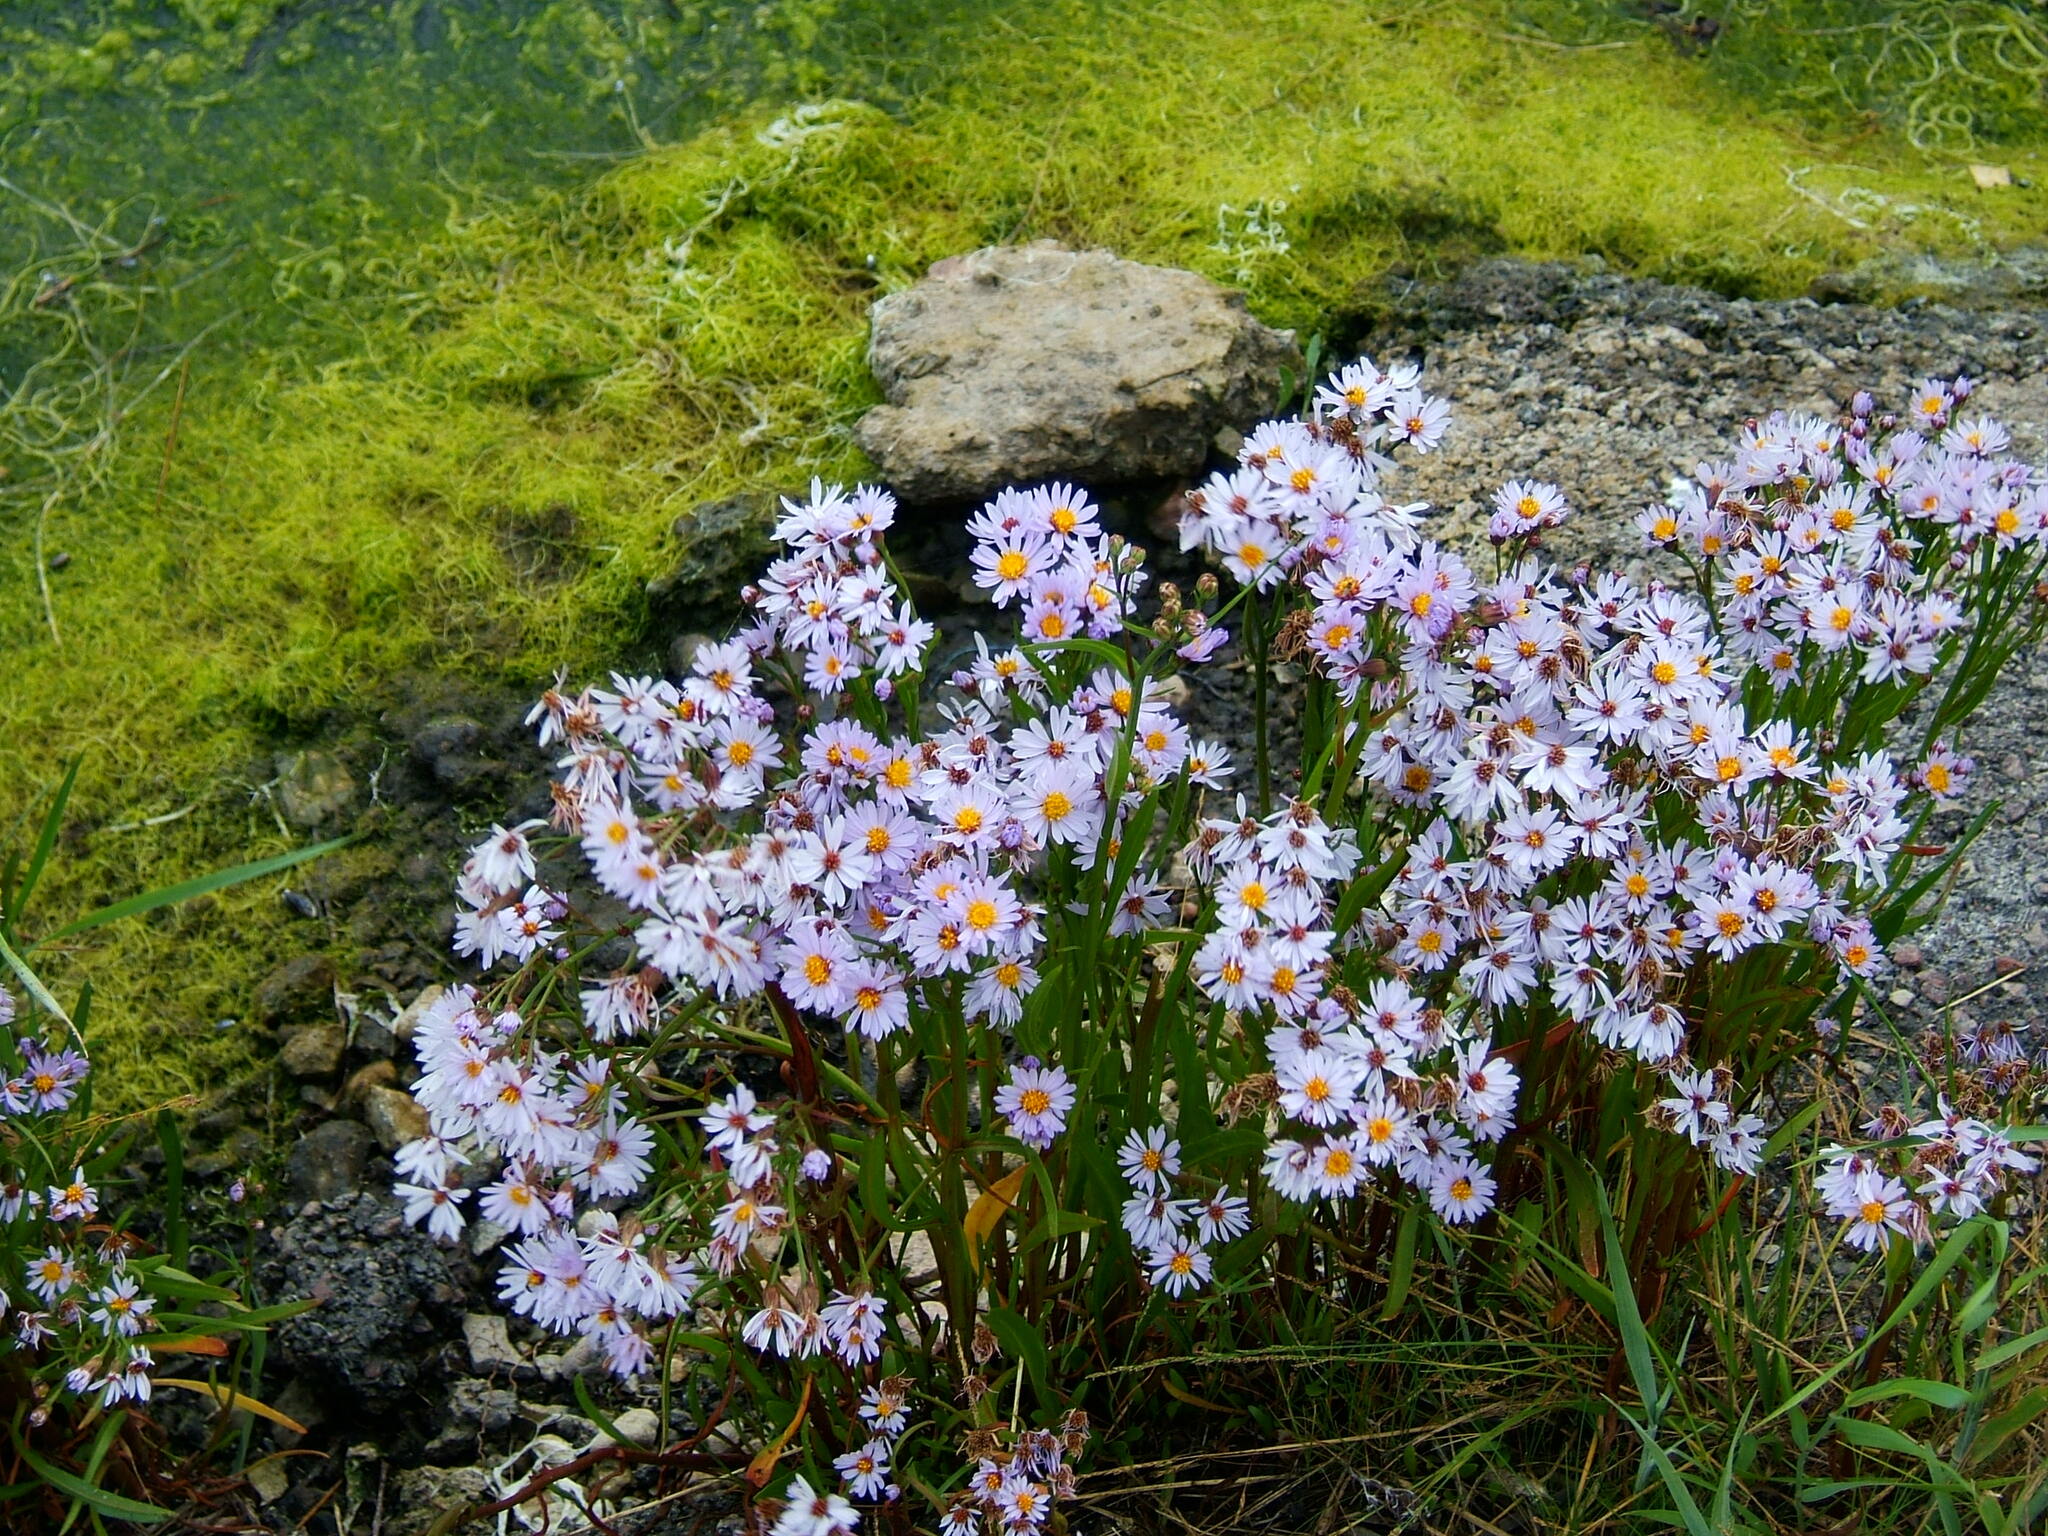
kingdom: Plantae
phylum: Tracheophyta
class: Magnoliopsida
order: Asterales
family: Asteraceae
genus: Tripolium
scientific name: Tripolium pannonicum
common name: Sea aster
